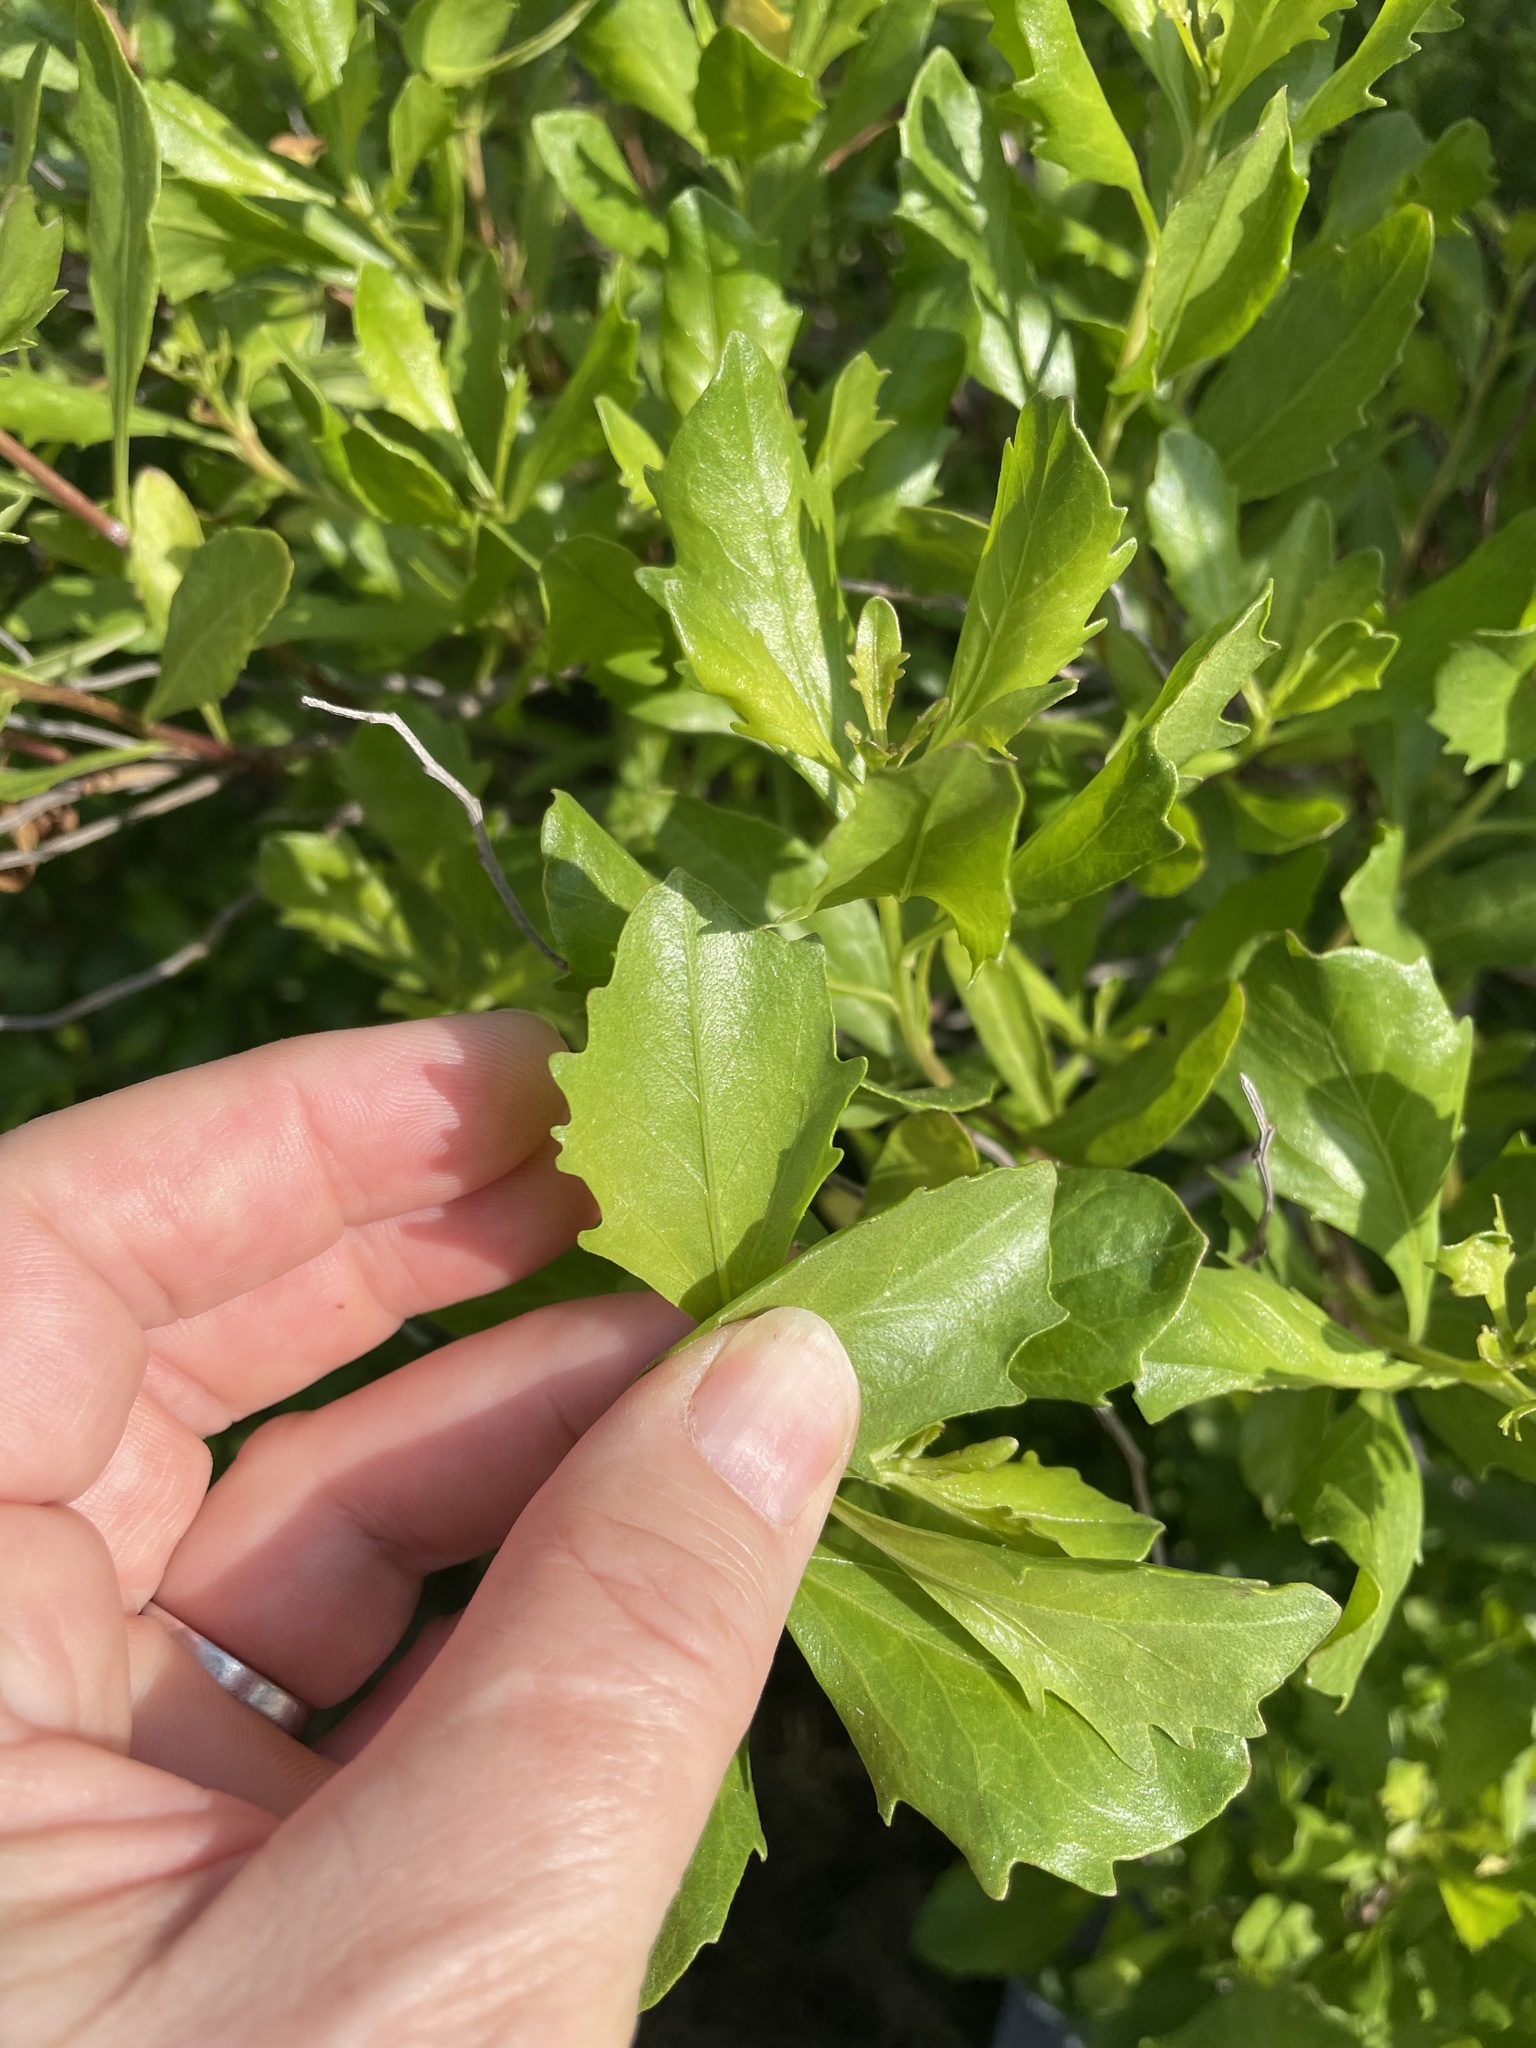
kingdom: Plantae
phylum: Tracheophyta
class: Magnoliopsida
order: Asterales
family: Asteraceae
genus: Baccharis
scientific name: Baccharis halimifolia
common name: Eastern baccharis
